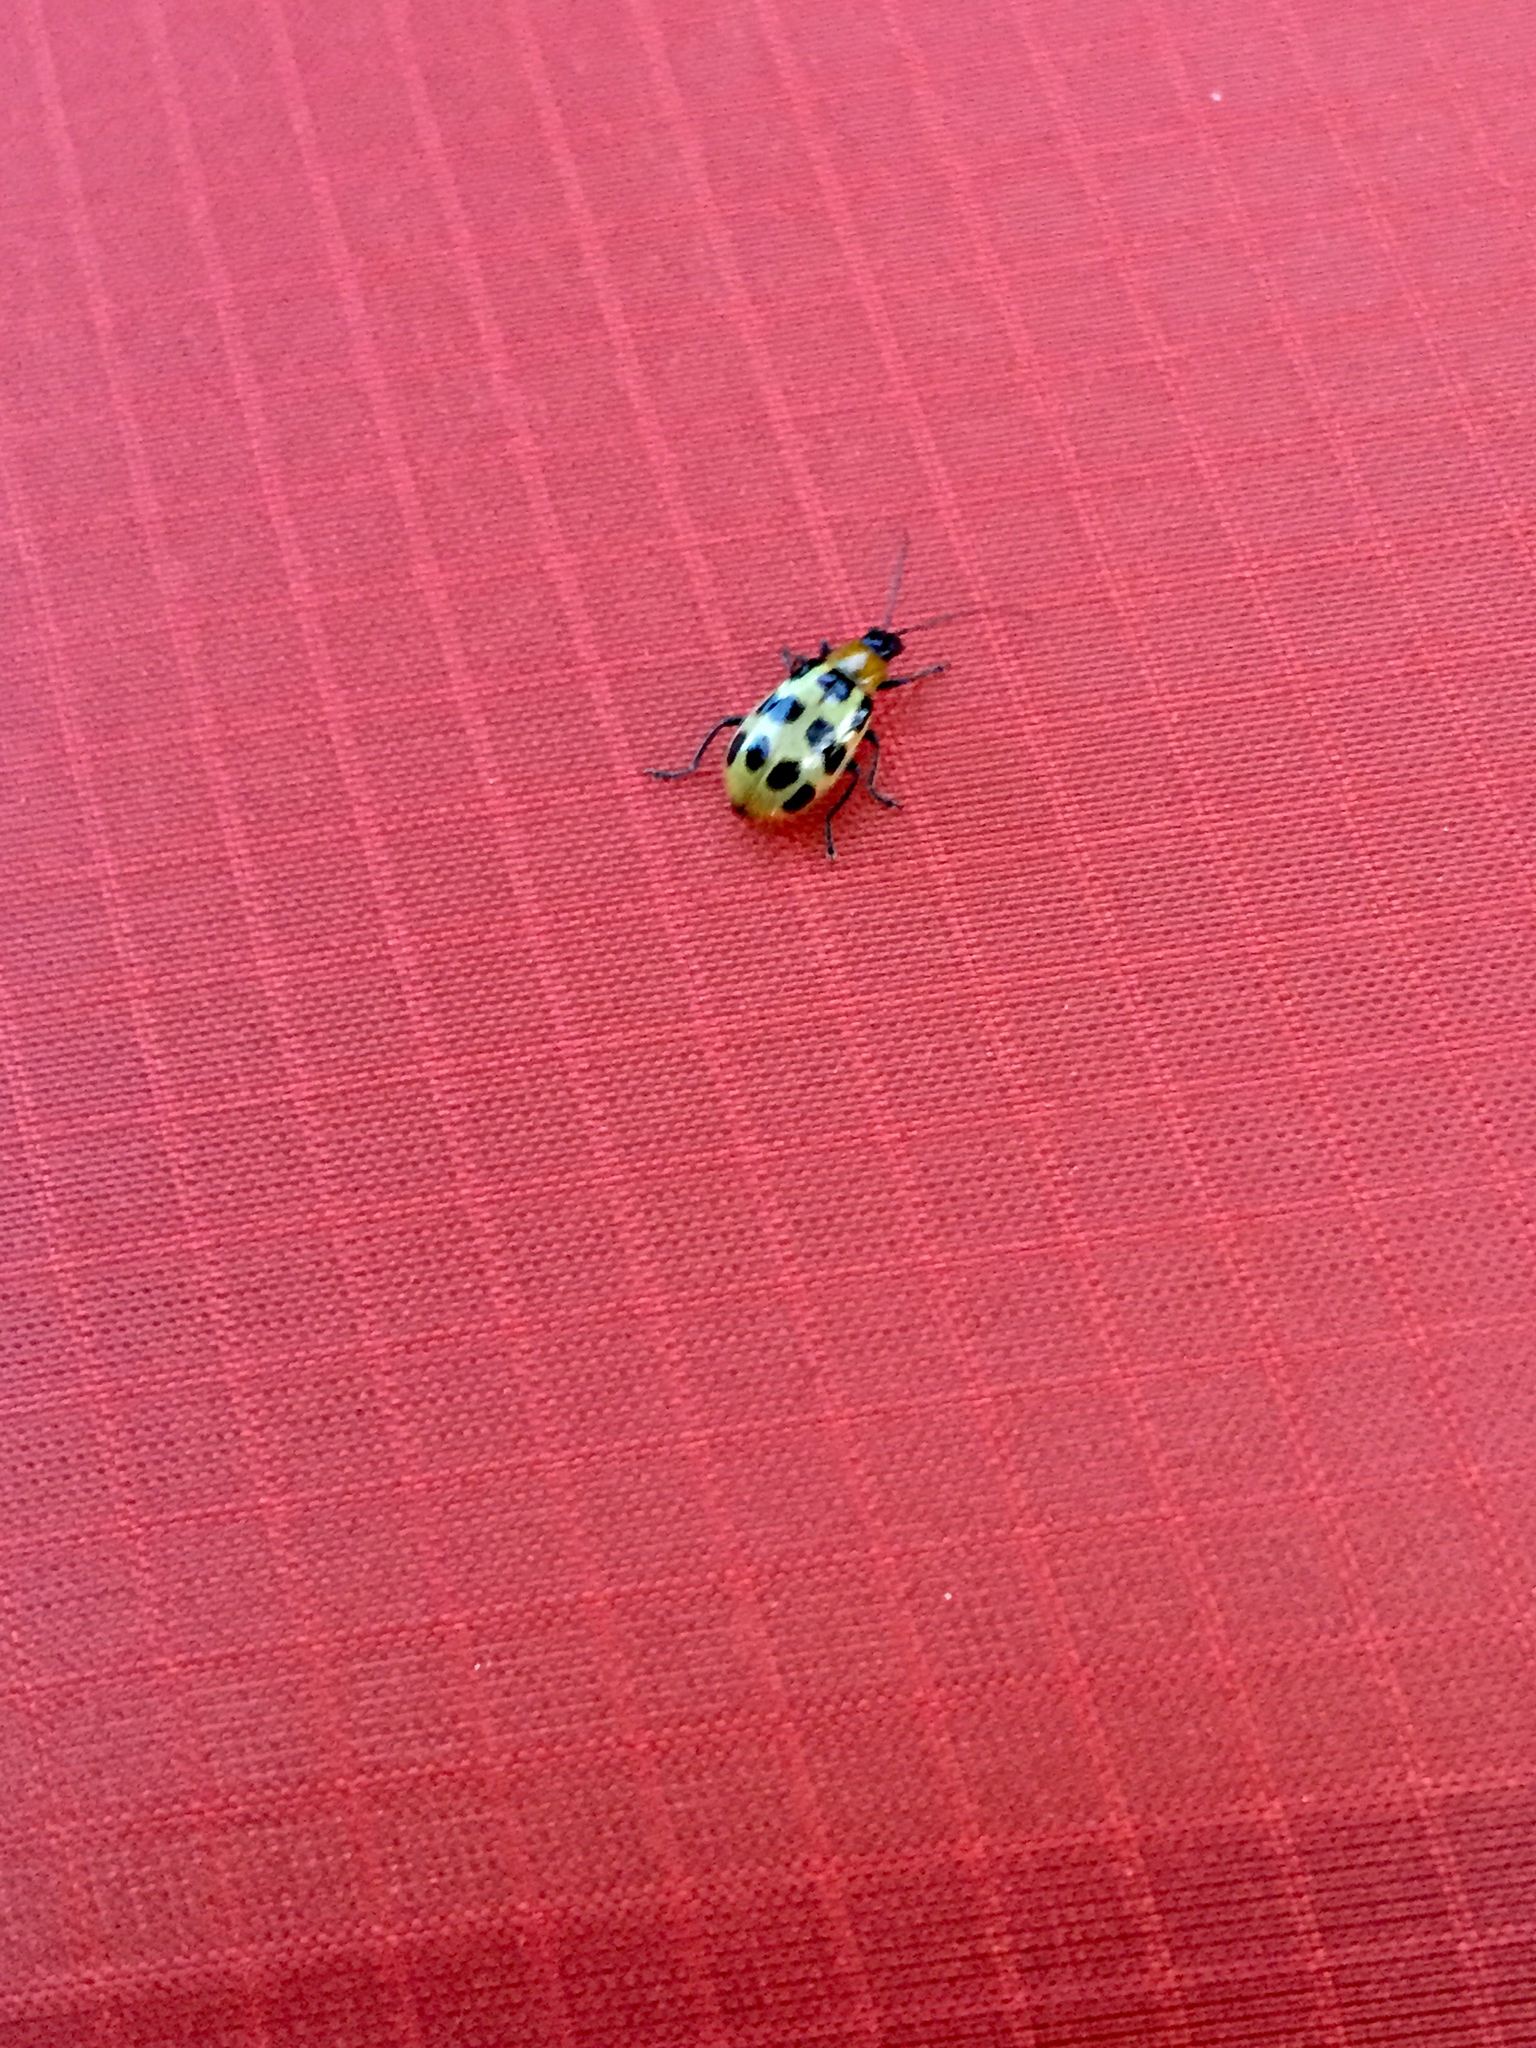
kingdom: Animalia
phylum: Arthropoda
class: Insecta
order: Coleoptera
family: Chrysomelidae
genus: Diabrotica
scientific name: Diabrotica undecimpunctata
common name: Spotted cucumber beetle
